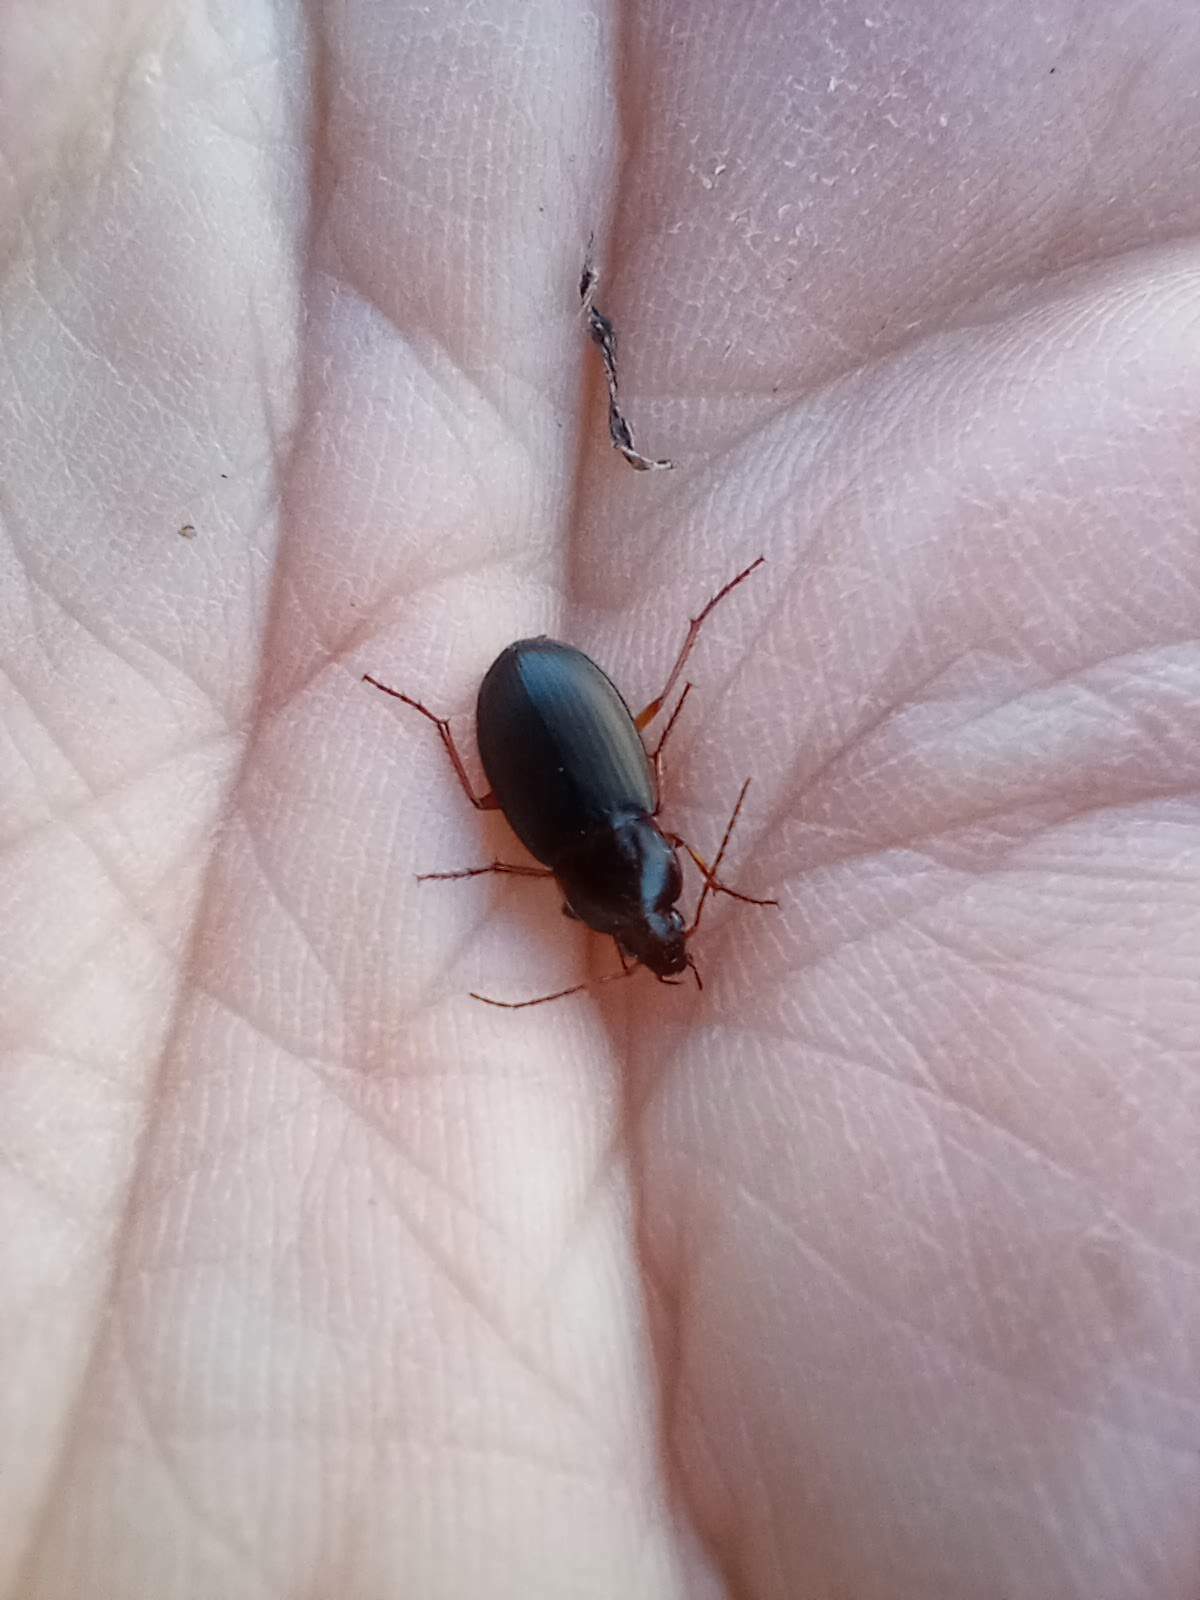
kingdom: Animalia
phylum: Arthropoda
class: Insecta
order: Coleoptera
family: Carabidae
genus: Calathus
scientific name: Calathus ruficollis
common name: Red-collared harp ground beetle
